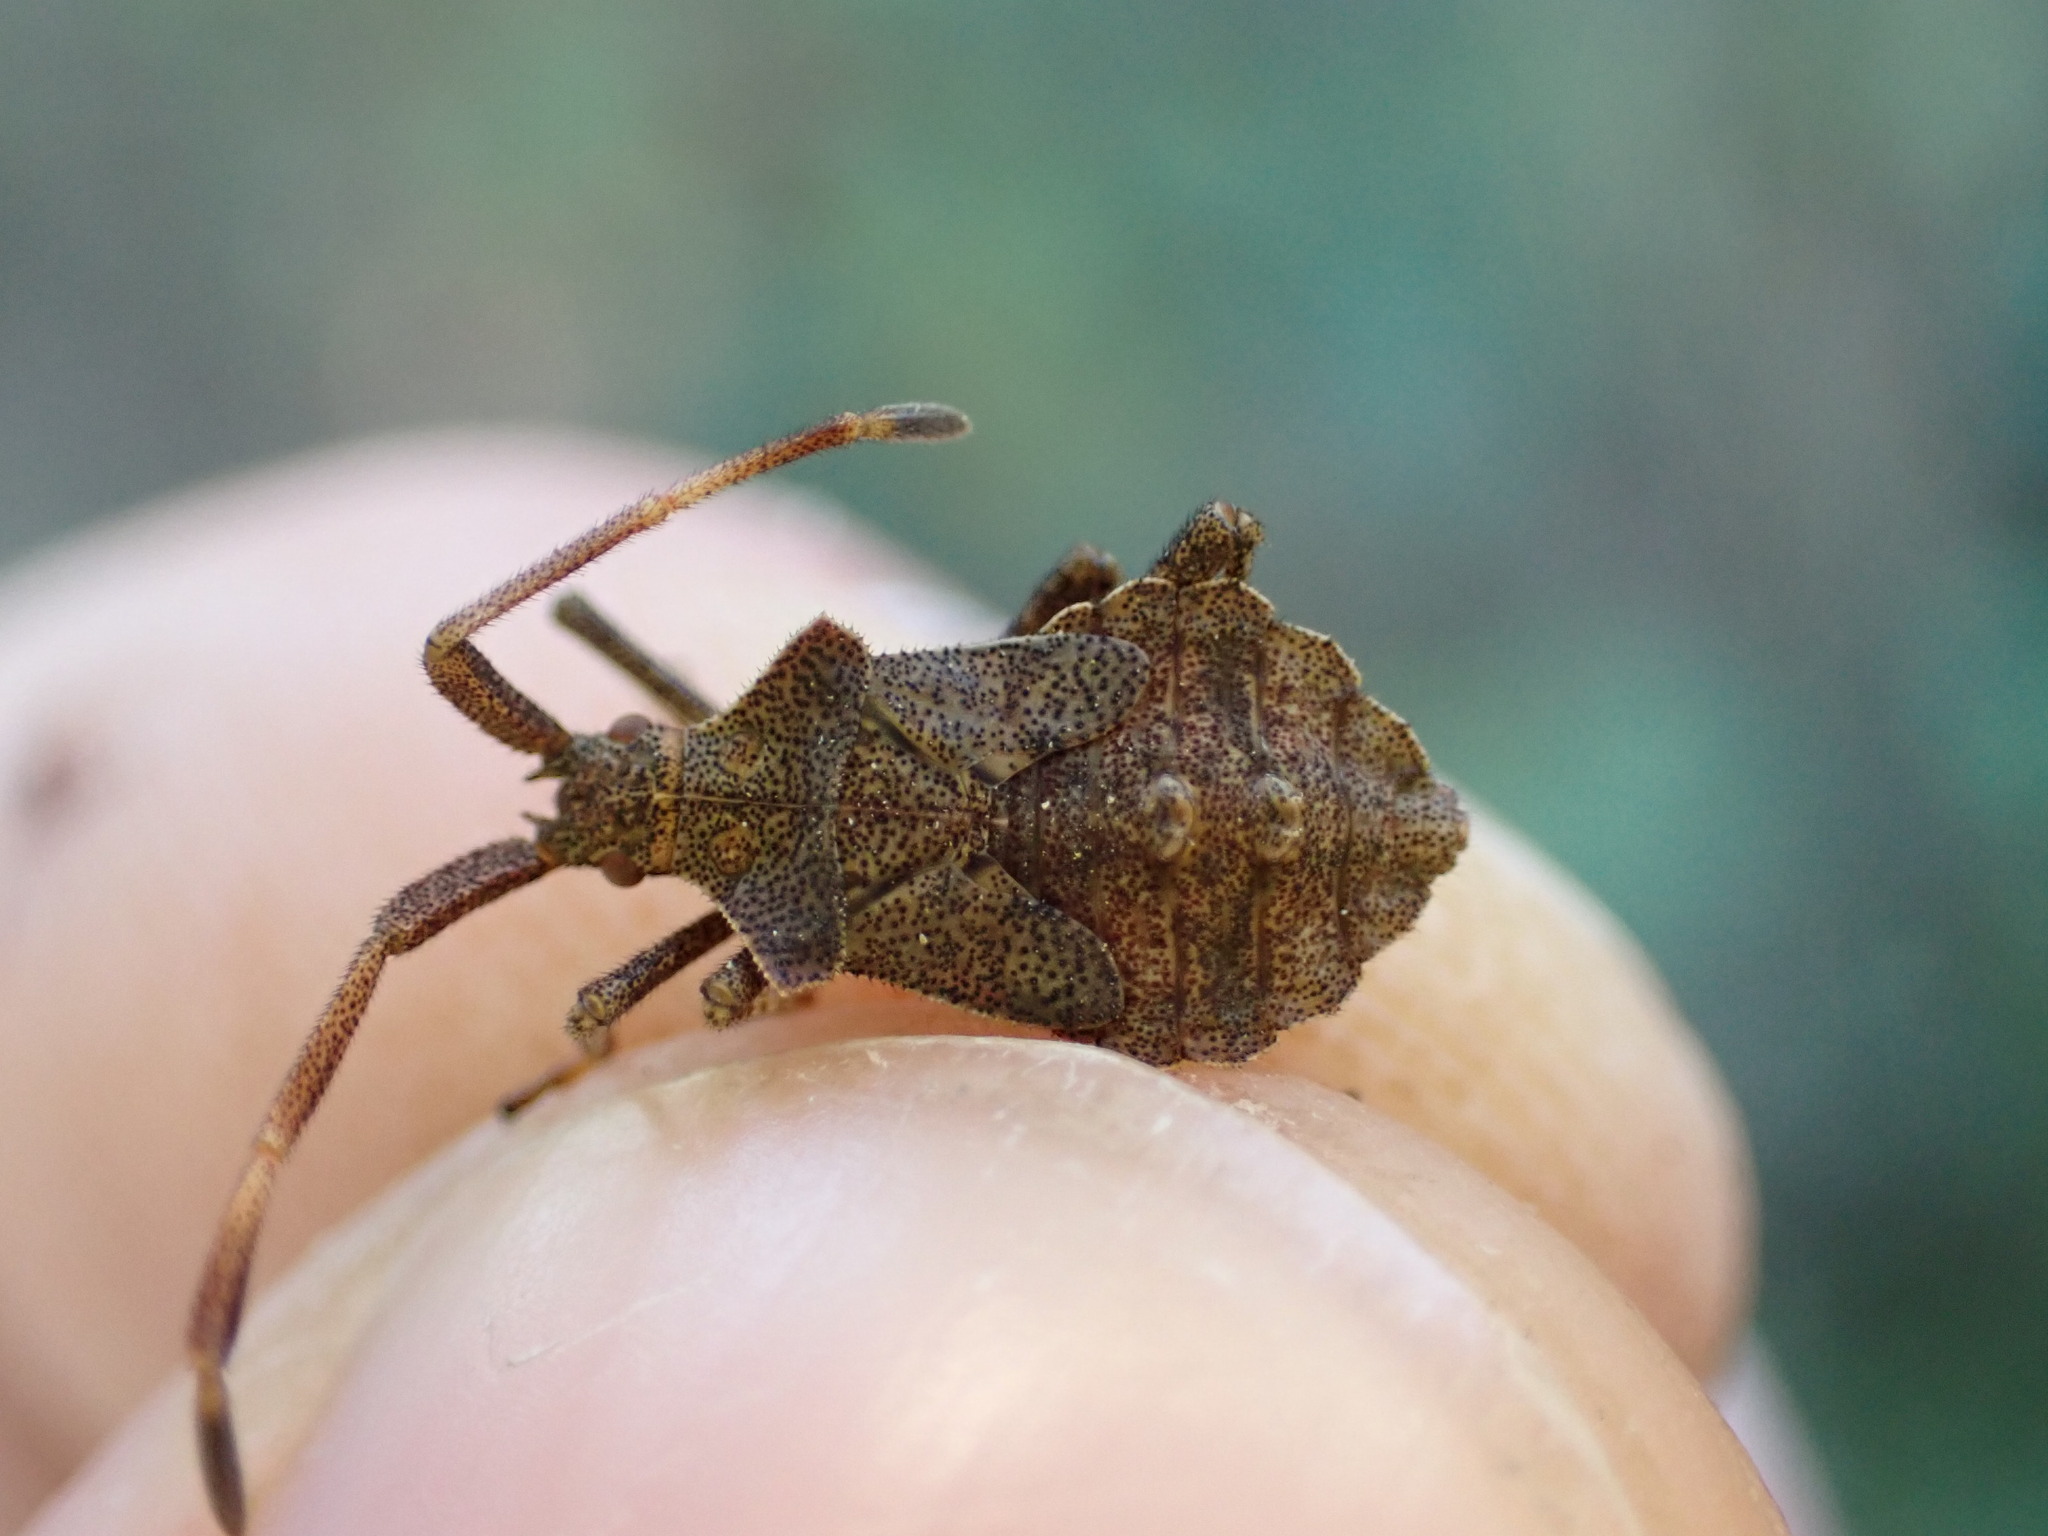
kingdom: Animalia
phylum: Arthropoda
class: Insecta
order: Hemiptera
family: Coreidae
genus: Coreus
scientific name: Coreus marginatus
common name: Dock bug
